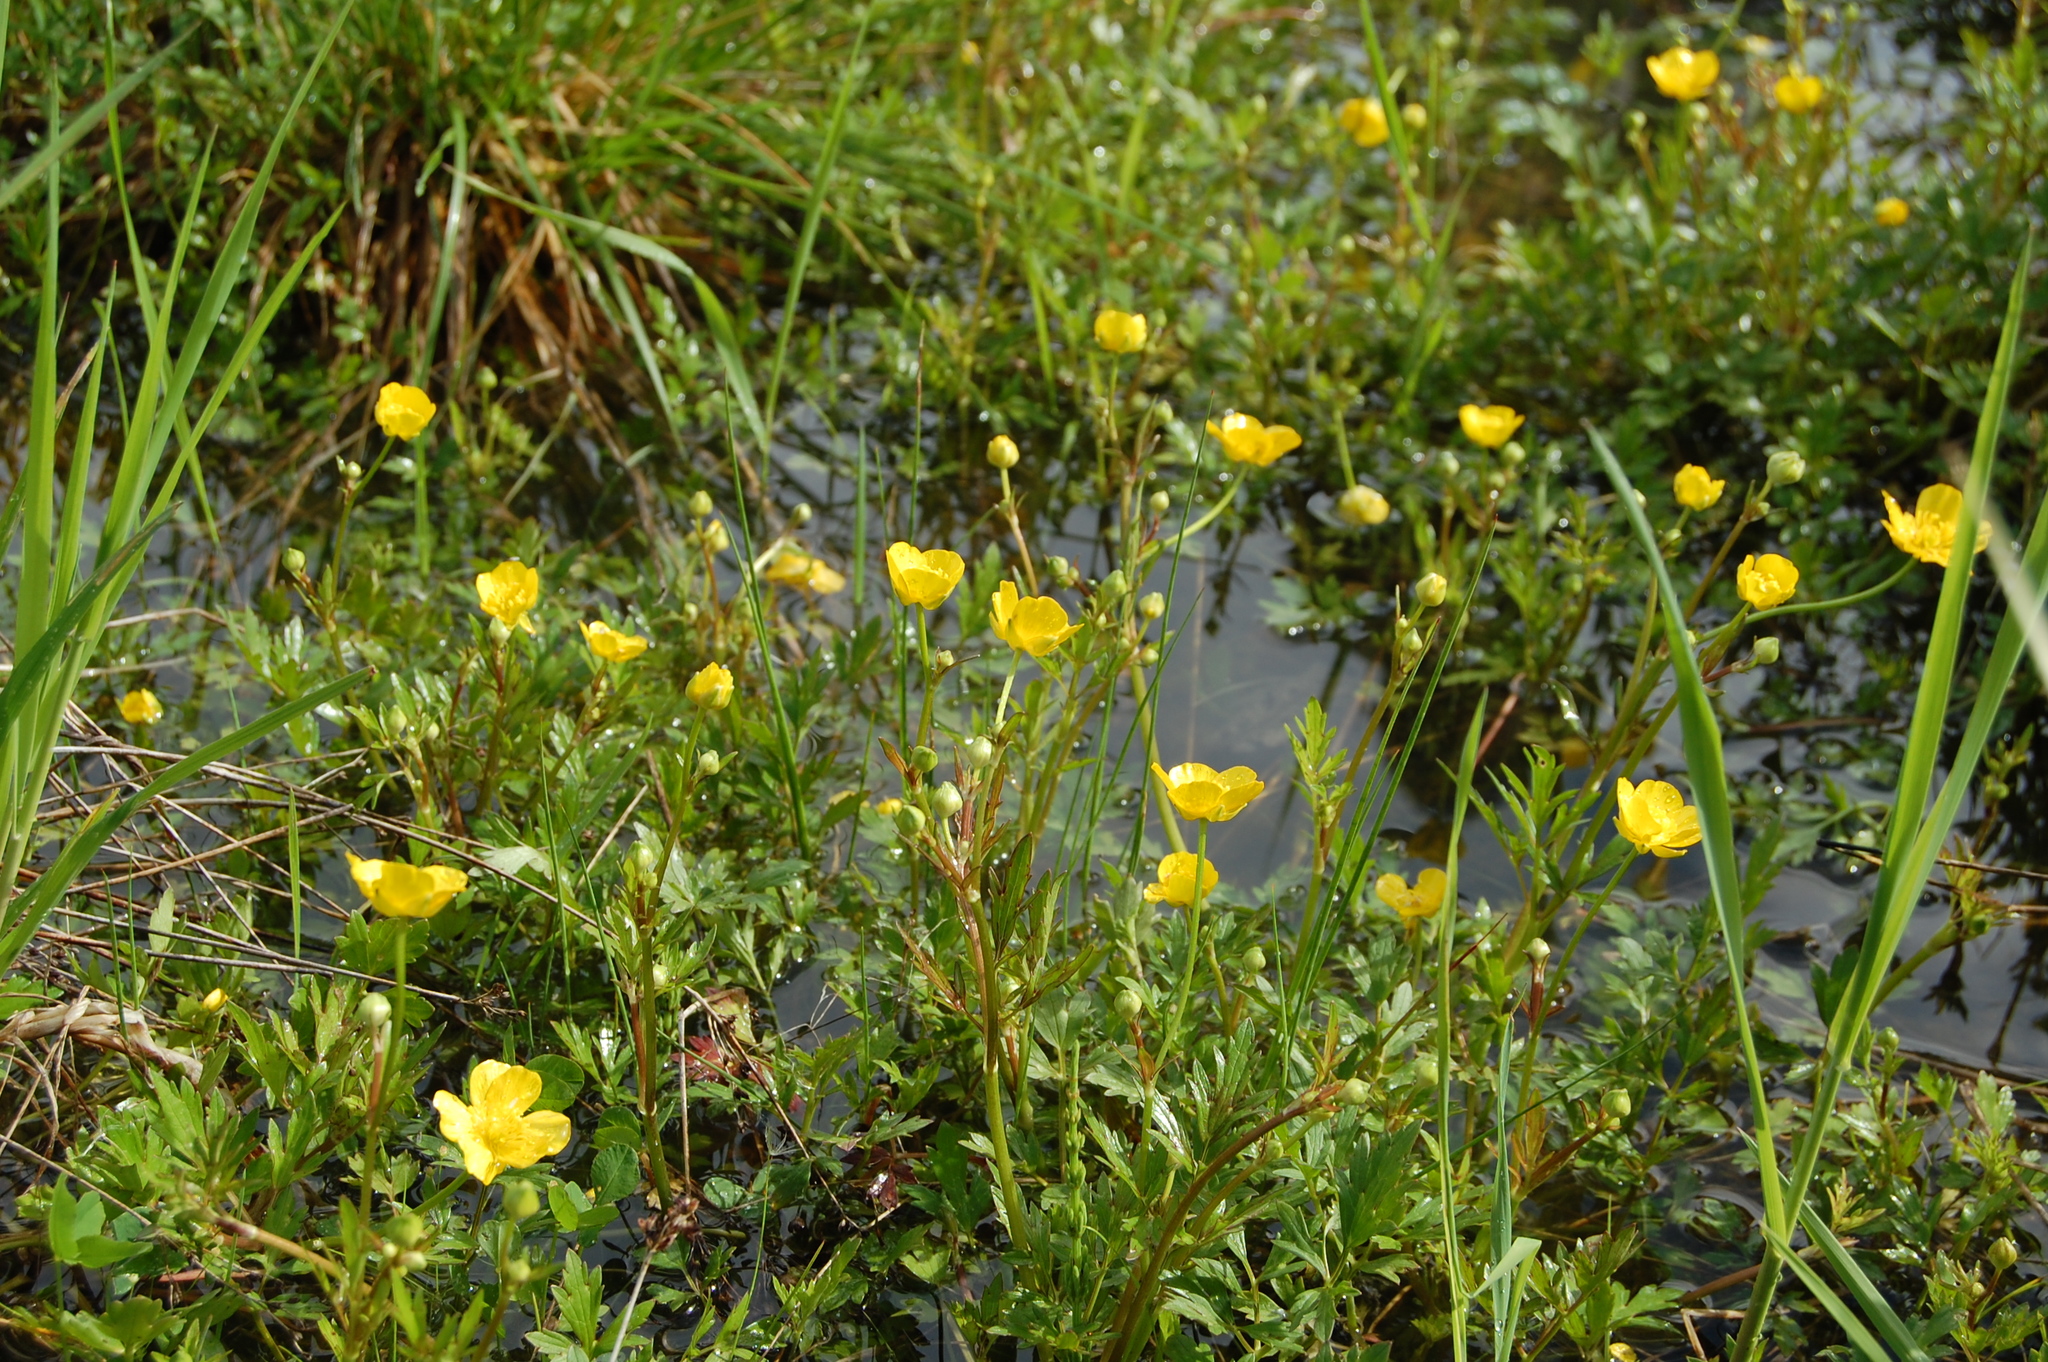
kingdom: Plantae
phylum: Tracheophyta
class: Magnoliopsida
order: Ranunculales
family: Ranunculaceae
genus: Ranunculus
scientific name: Ranunculus repens
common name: Creeping buttercup
